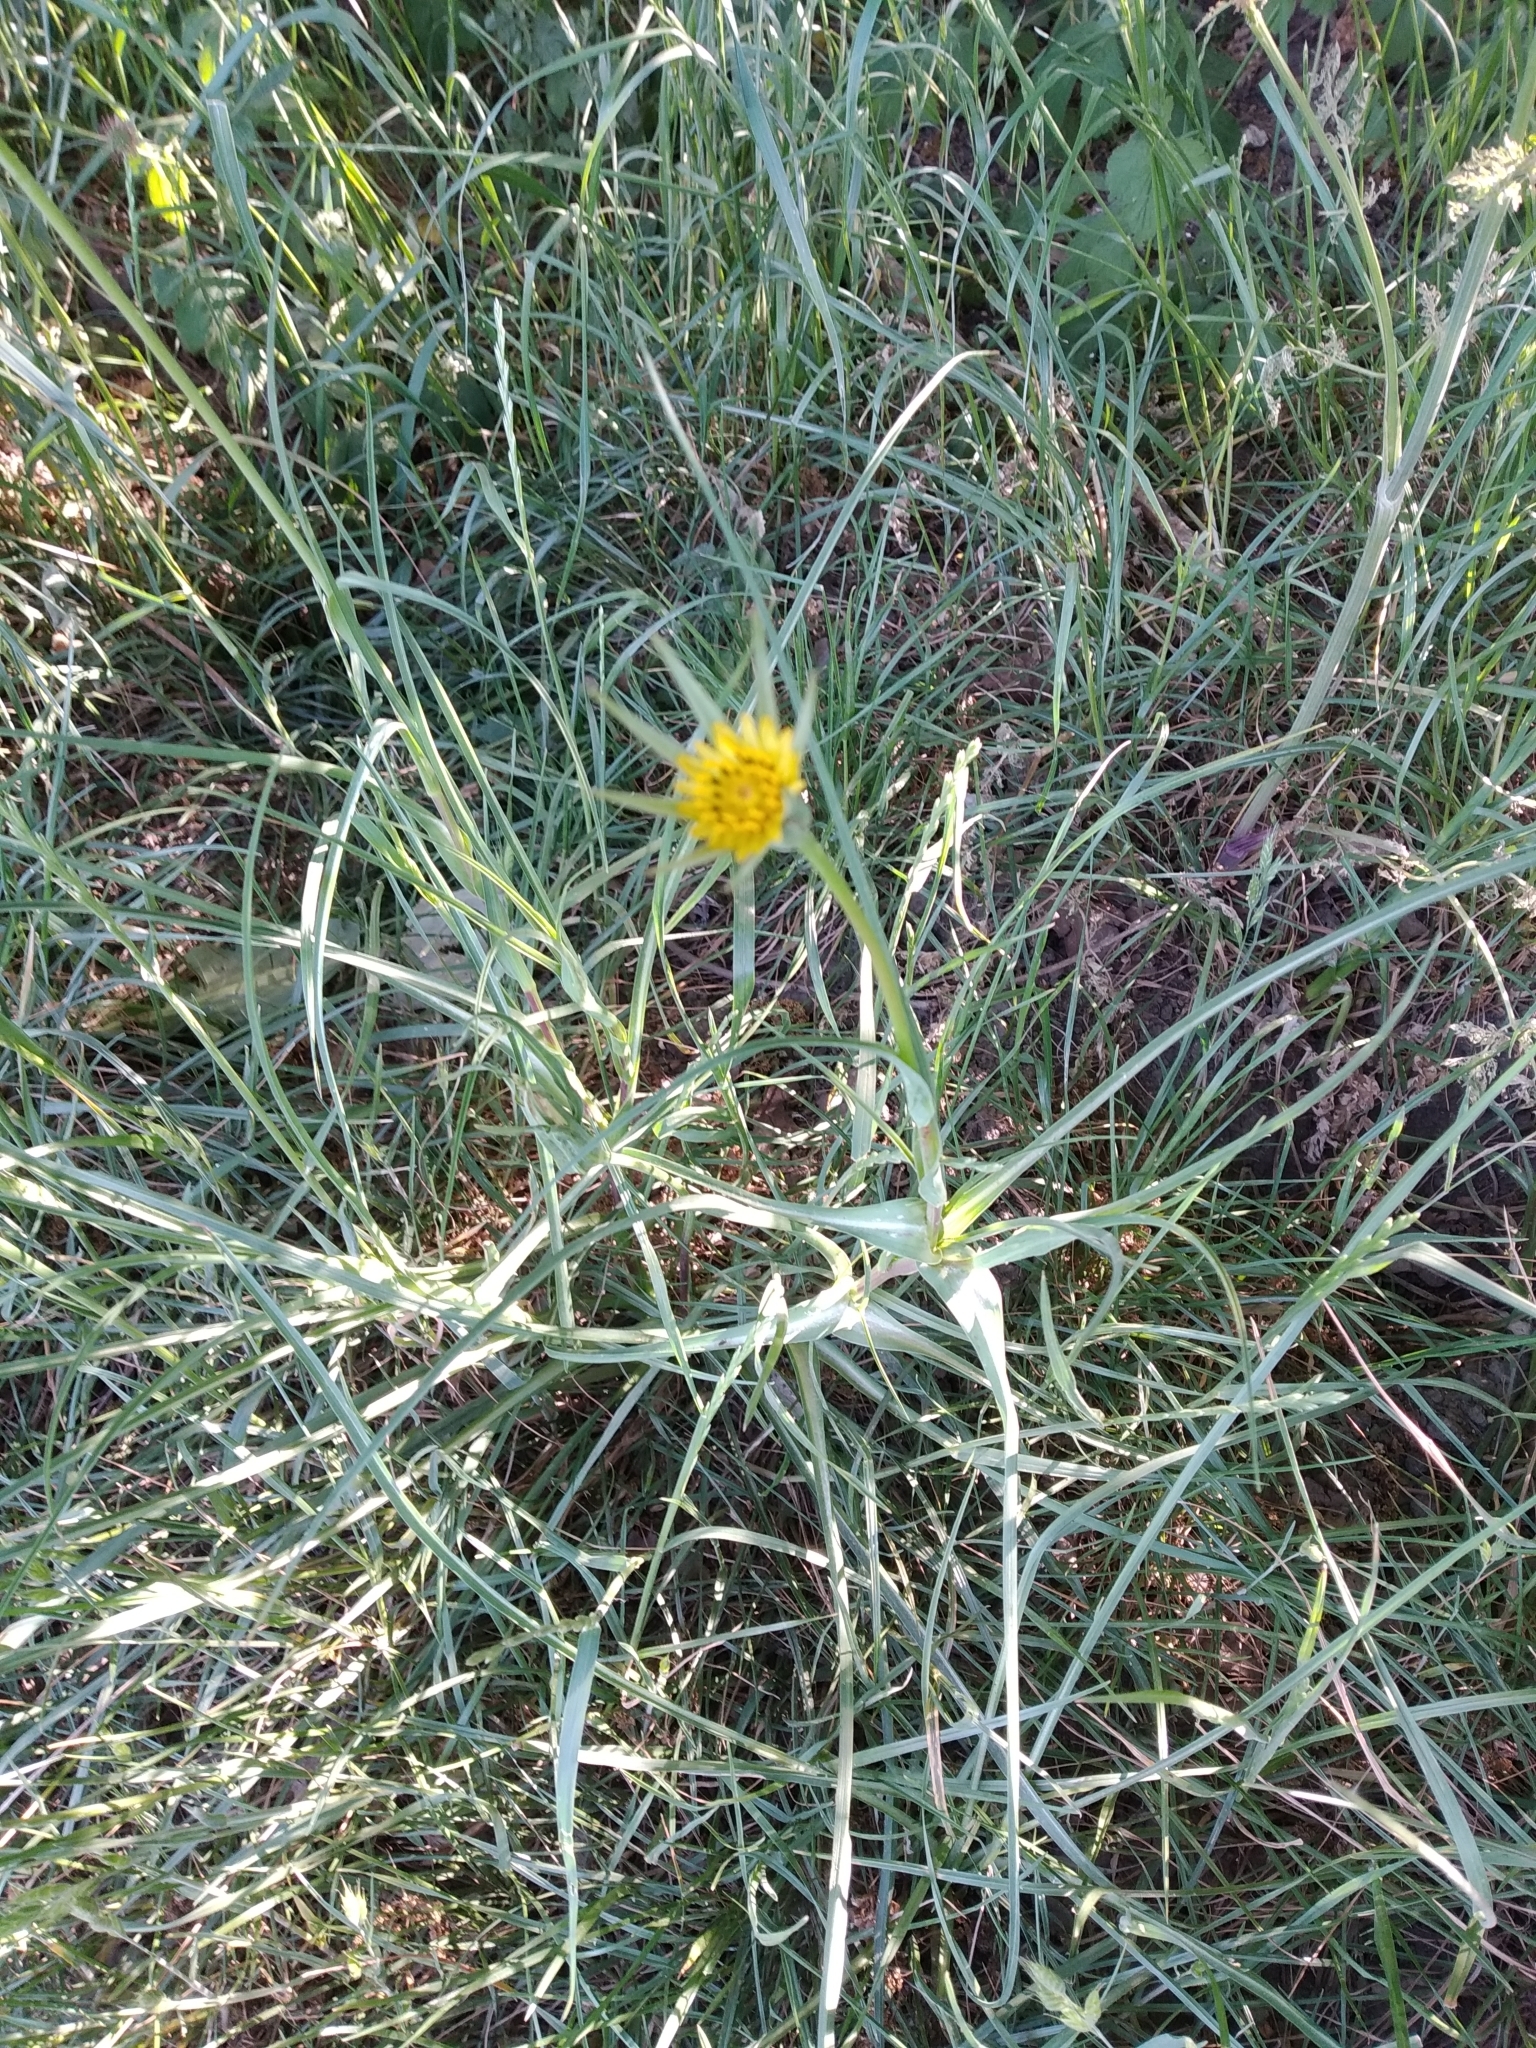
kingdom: Plantae
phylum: Tracheophyta
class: Magnoliopsida
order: Asterales
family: Asteraceae
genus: Tragopogon
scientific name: Tragopogon minor
